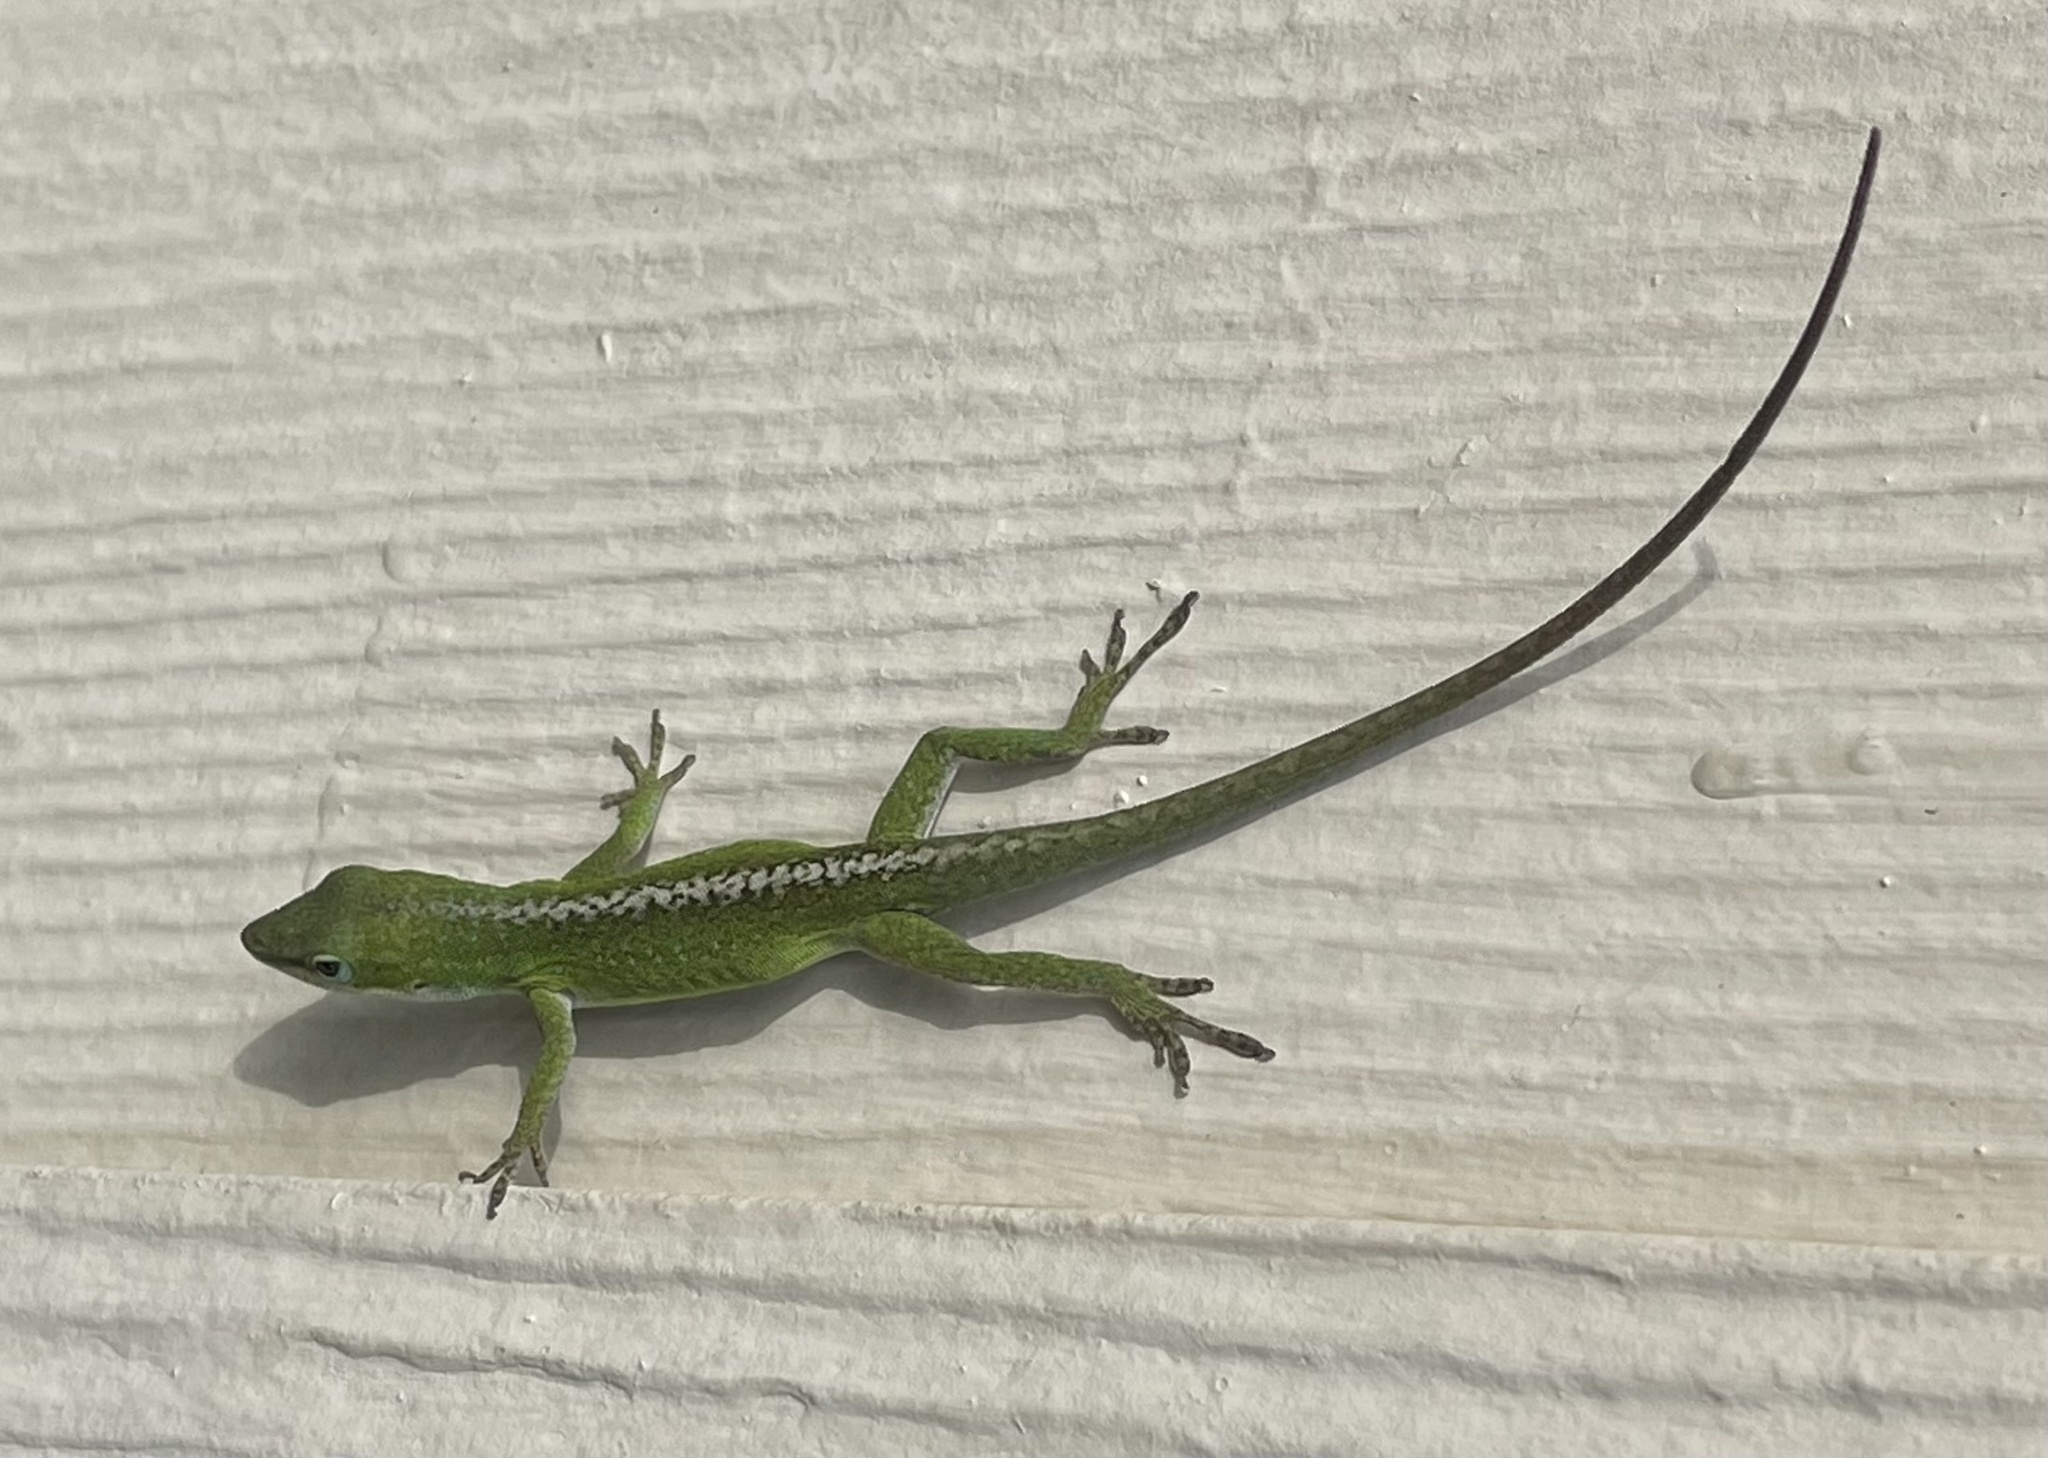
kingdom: Animalia
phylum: Chordata
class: Squamata
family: Dactyloidae
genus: Anolis
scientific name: Anolis carolinensis
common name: Green anole
